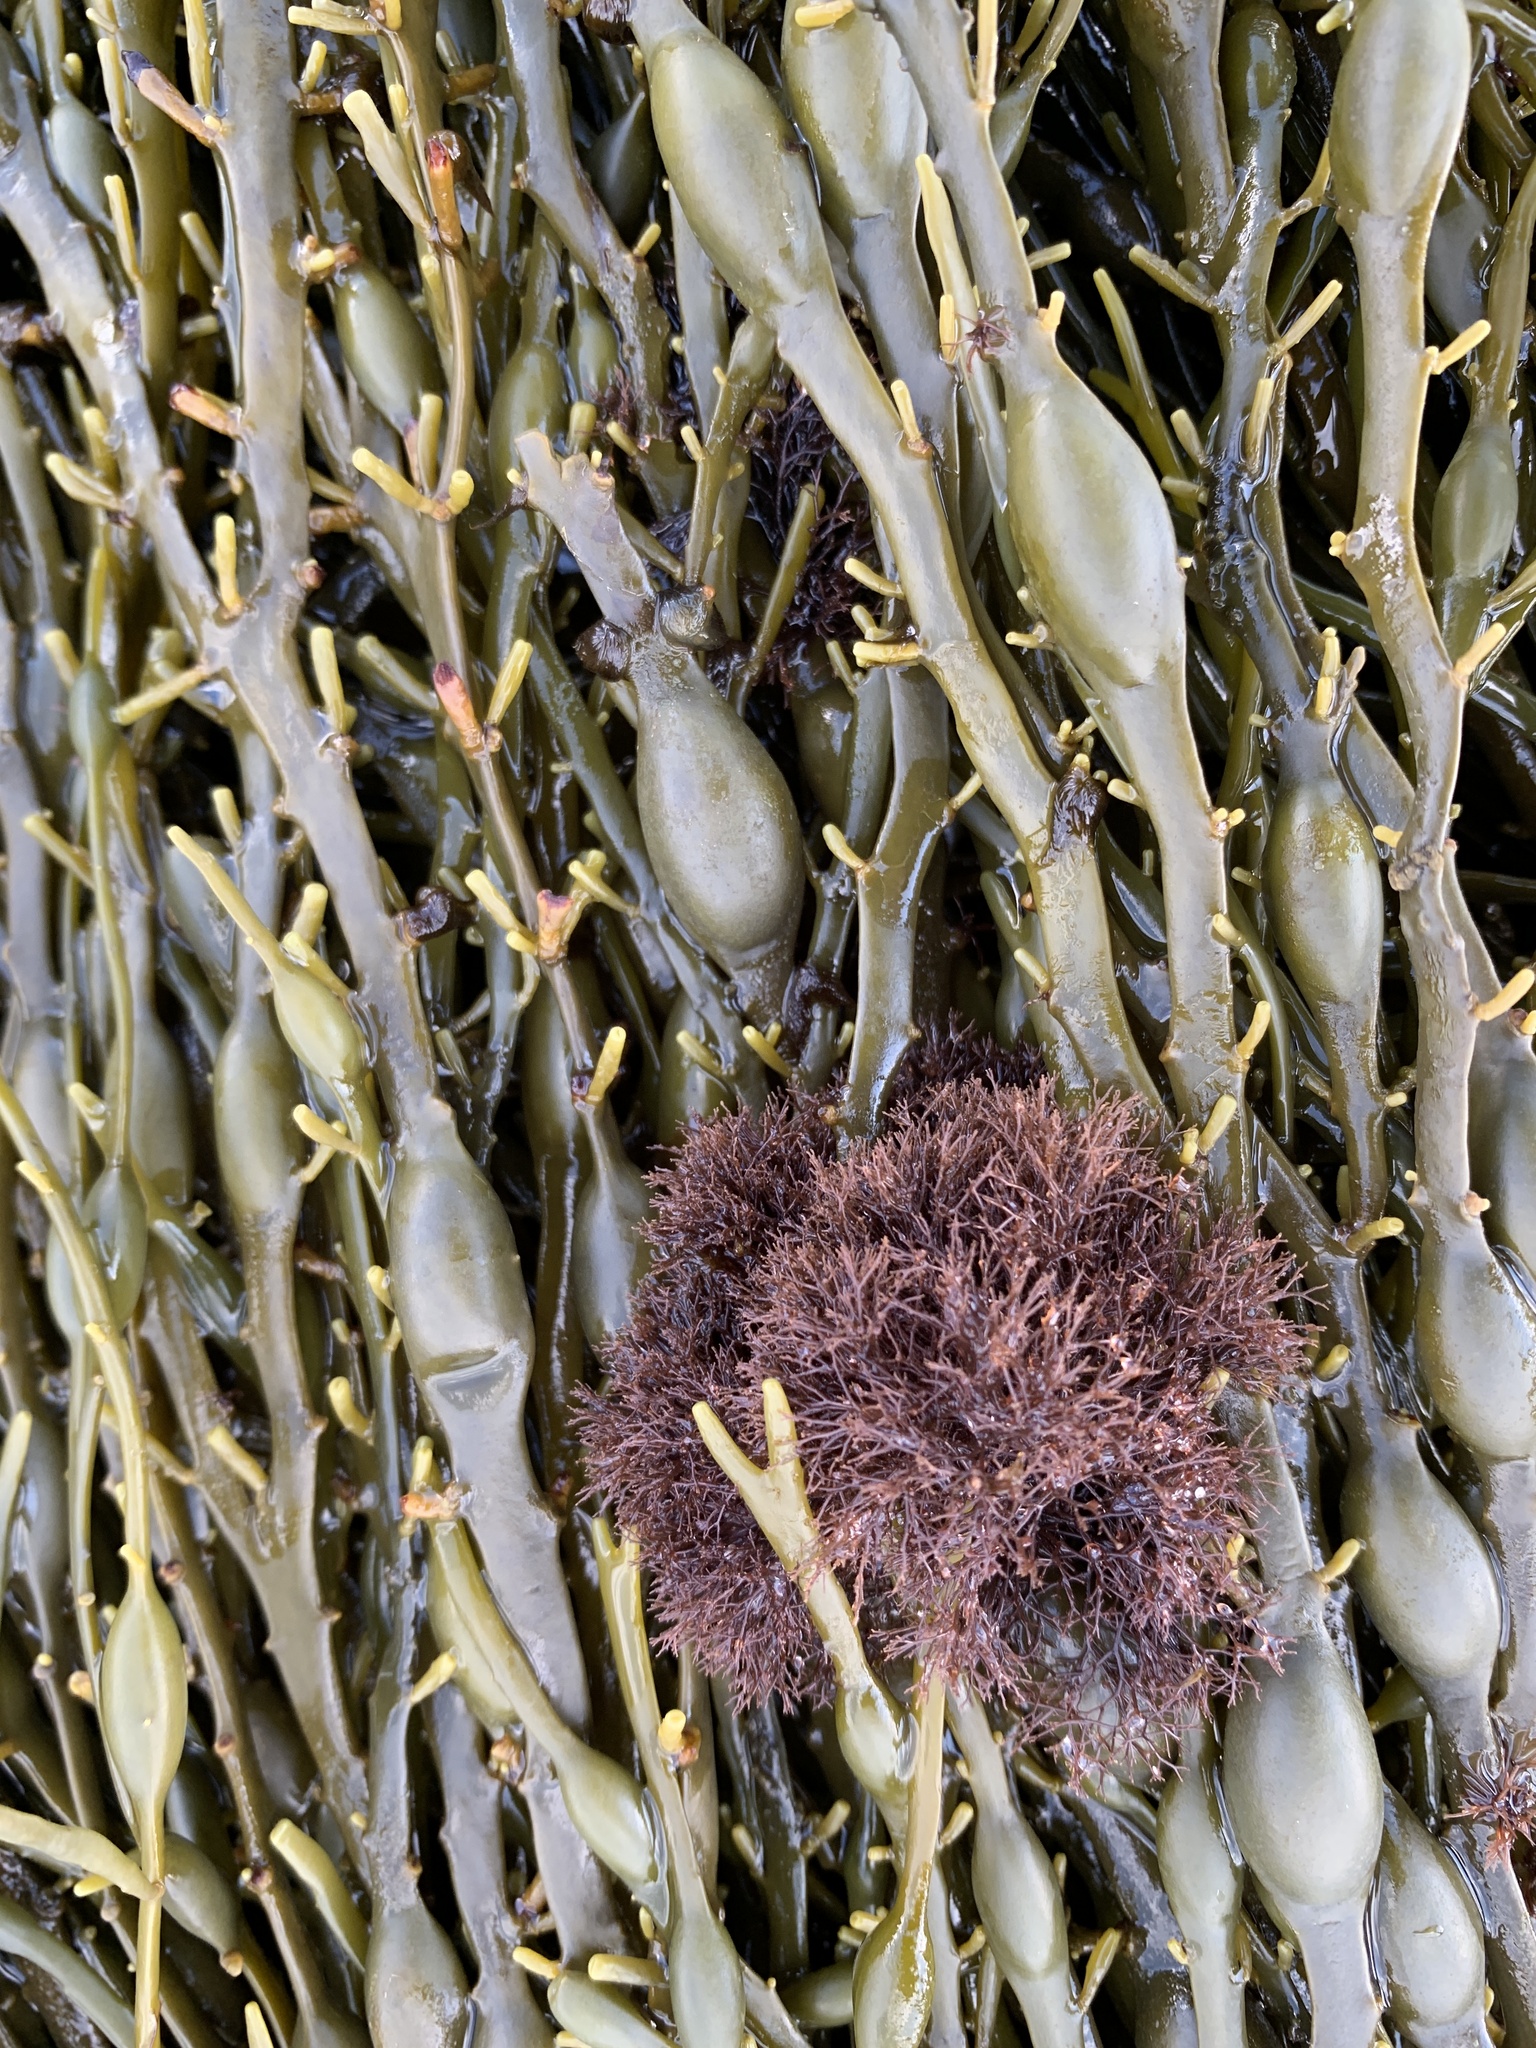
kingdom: Plantae
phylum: Rhodophyta
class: Florideophyceae
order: Ceramiales
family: Rhodomelaceae
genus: Vertebrata
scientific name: Vertebrata lanosa
